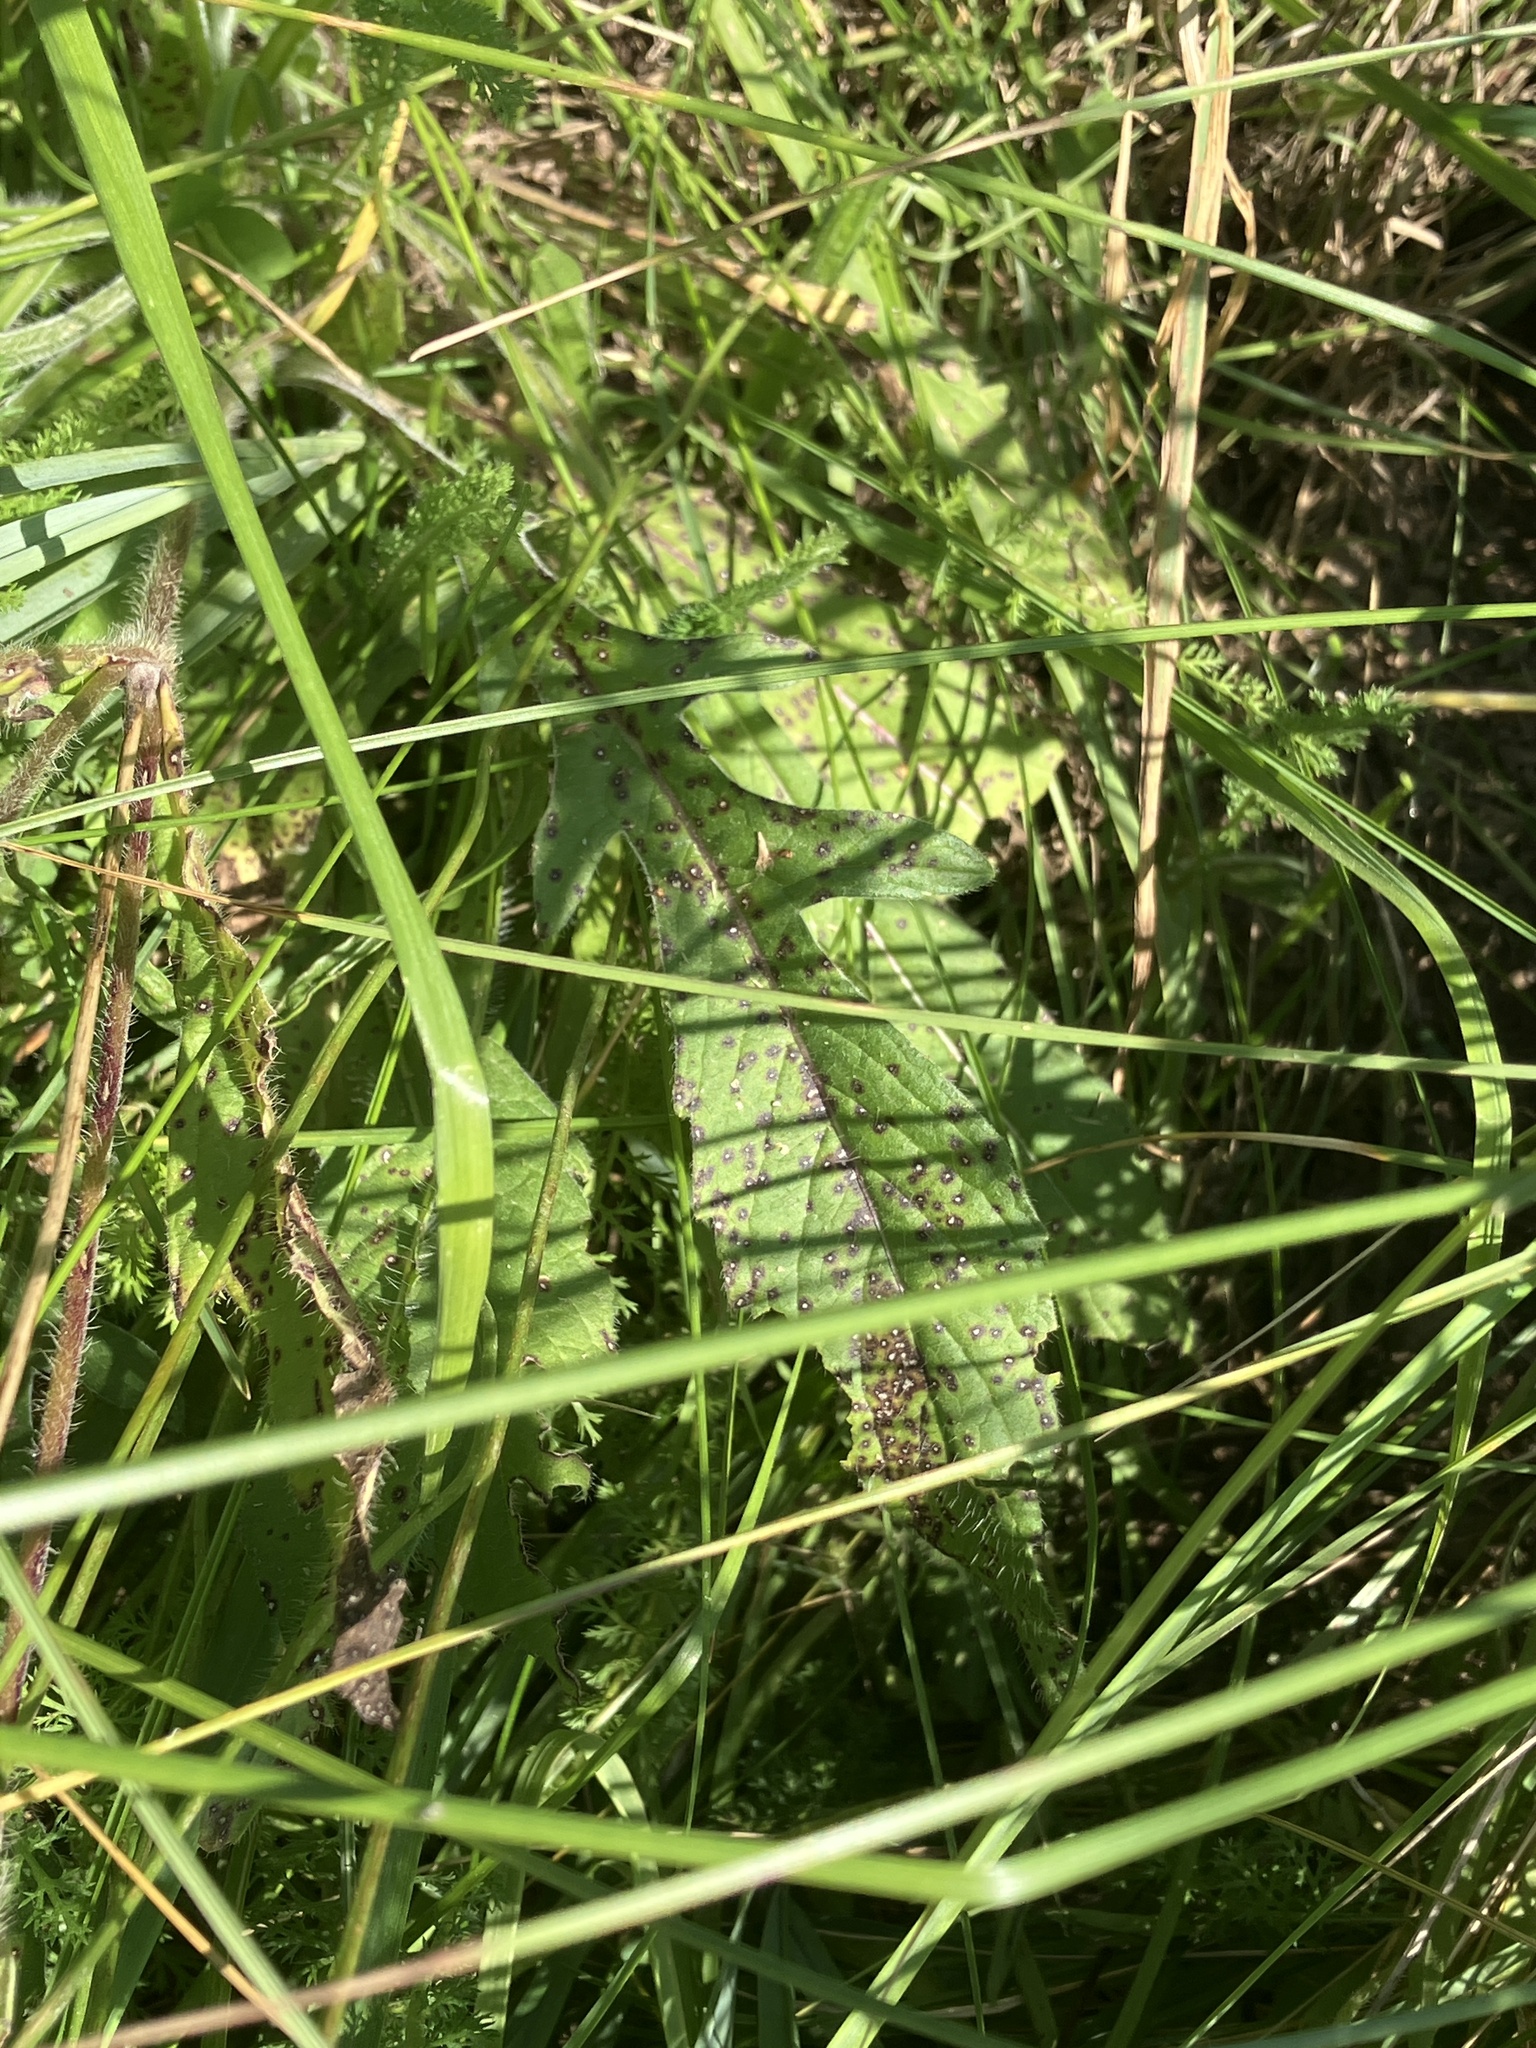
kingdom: Plantae
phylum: Tracheophyta
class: Magnoliopsida
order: Dipsacales
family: Caprifoliaceae
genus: Knautia
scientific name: Knautia arvensis
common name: Field scabiosa
